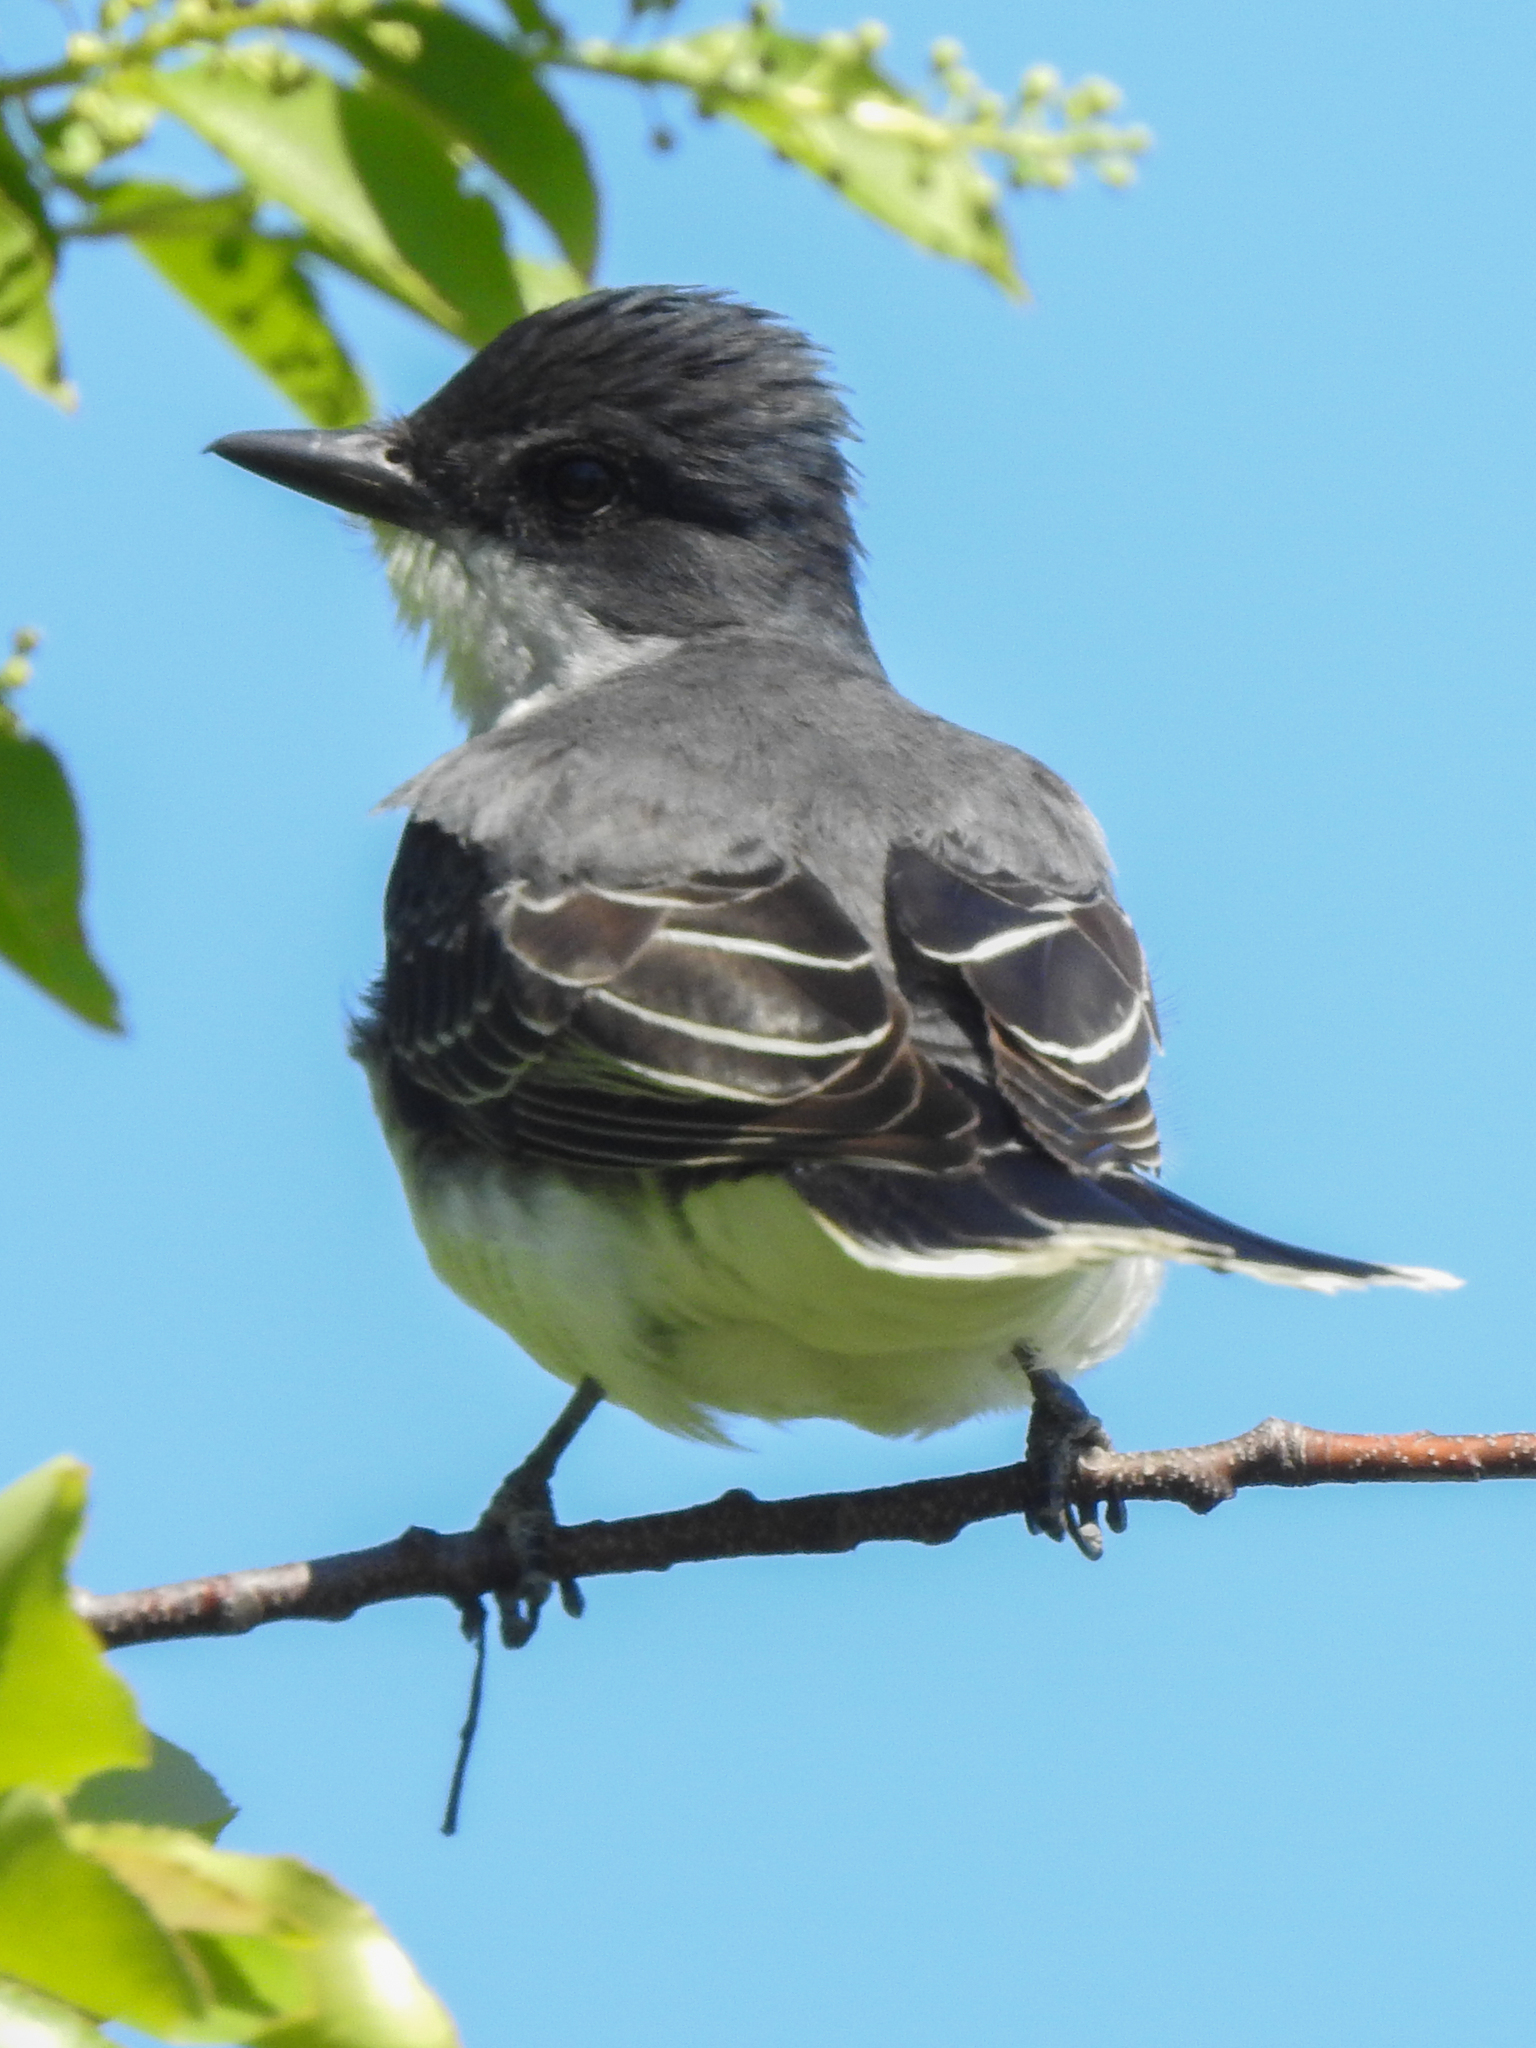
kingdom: Animalia
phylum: Chordata
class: Aves
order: Passeriformes
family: Tyrannidae
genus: Tyrannus
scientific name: Tyrannus tyrannus
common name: Eastern kingbird
